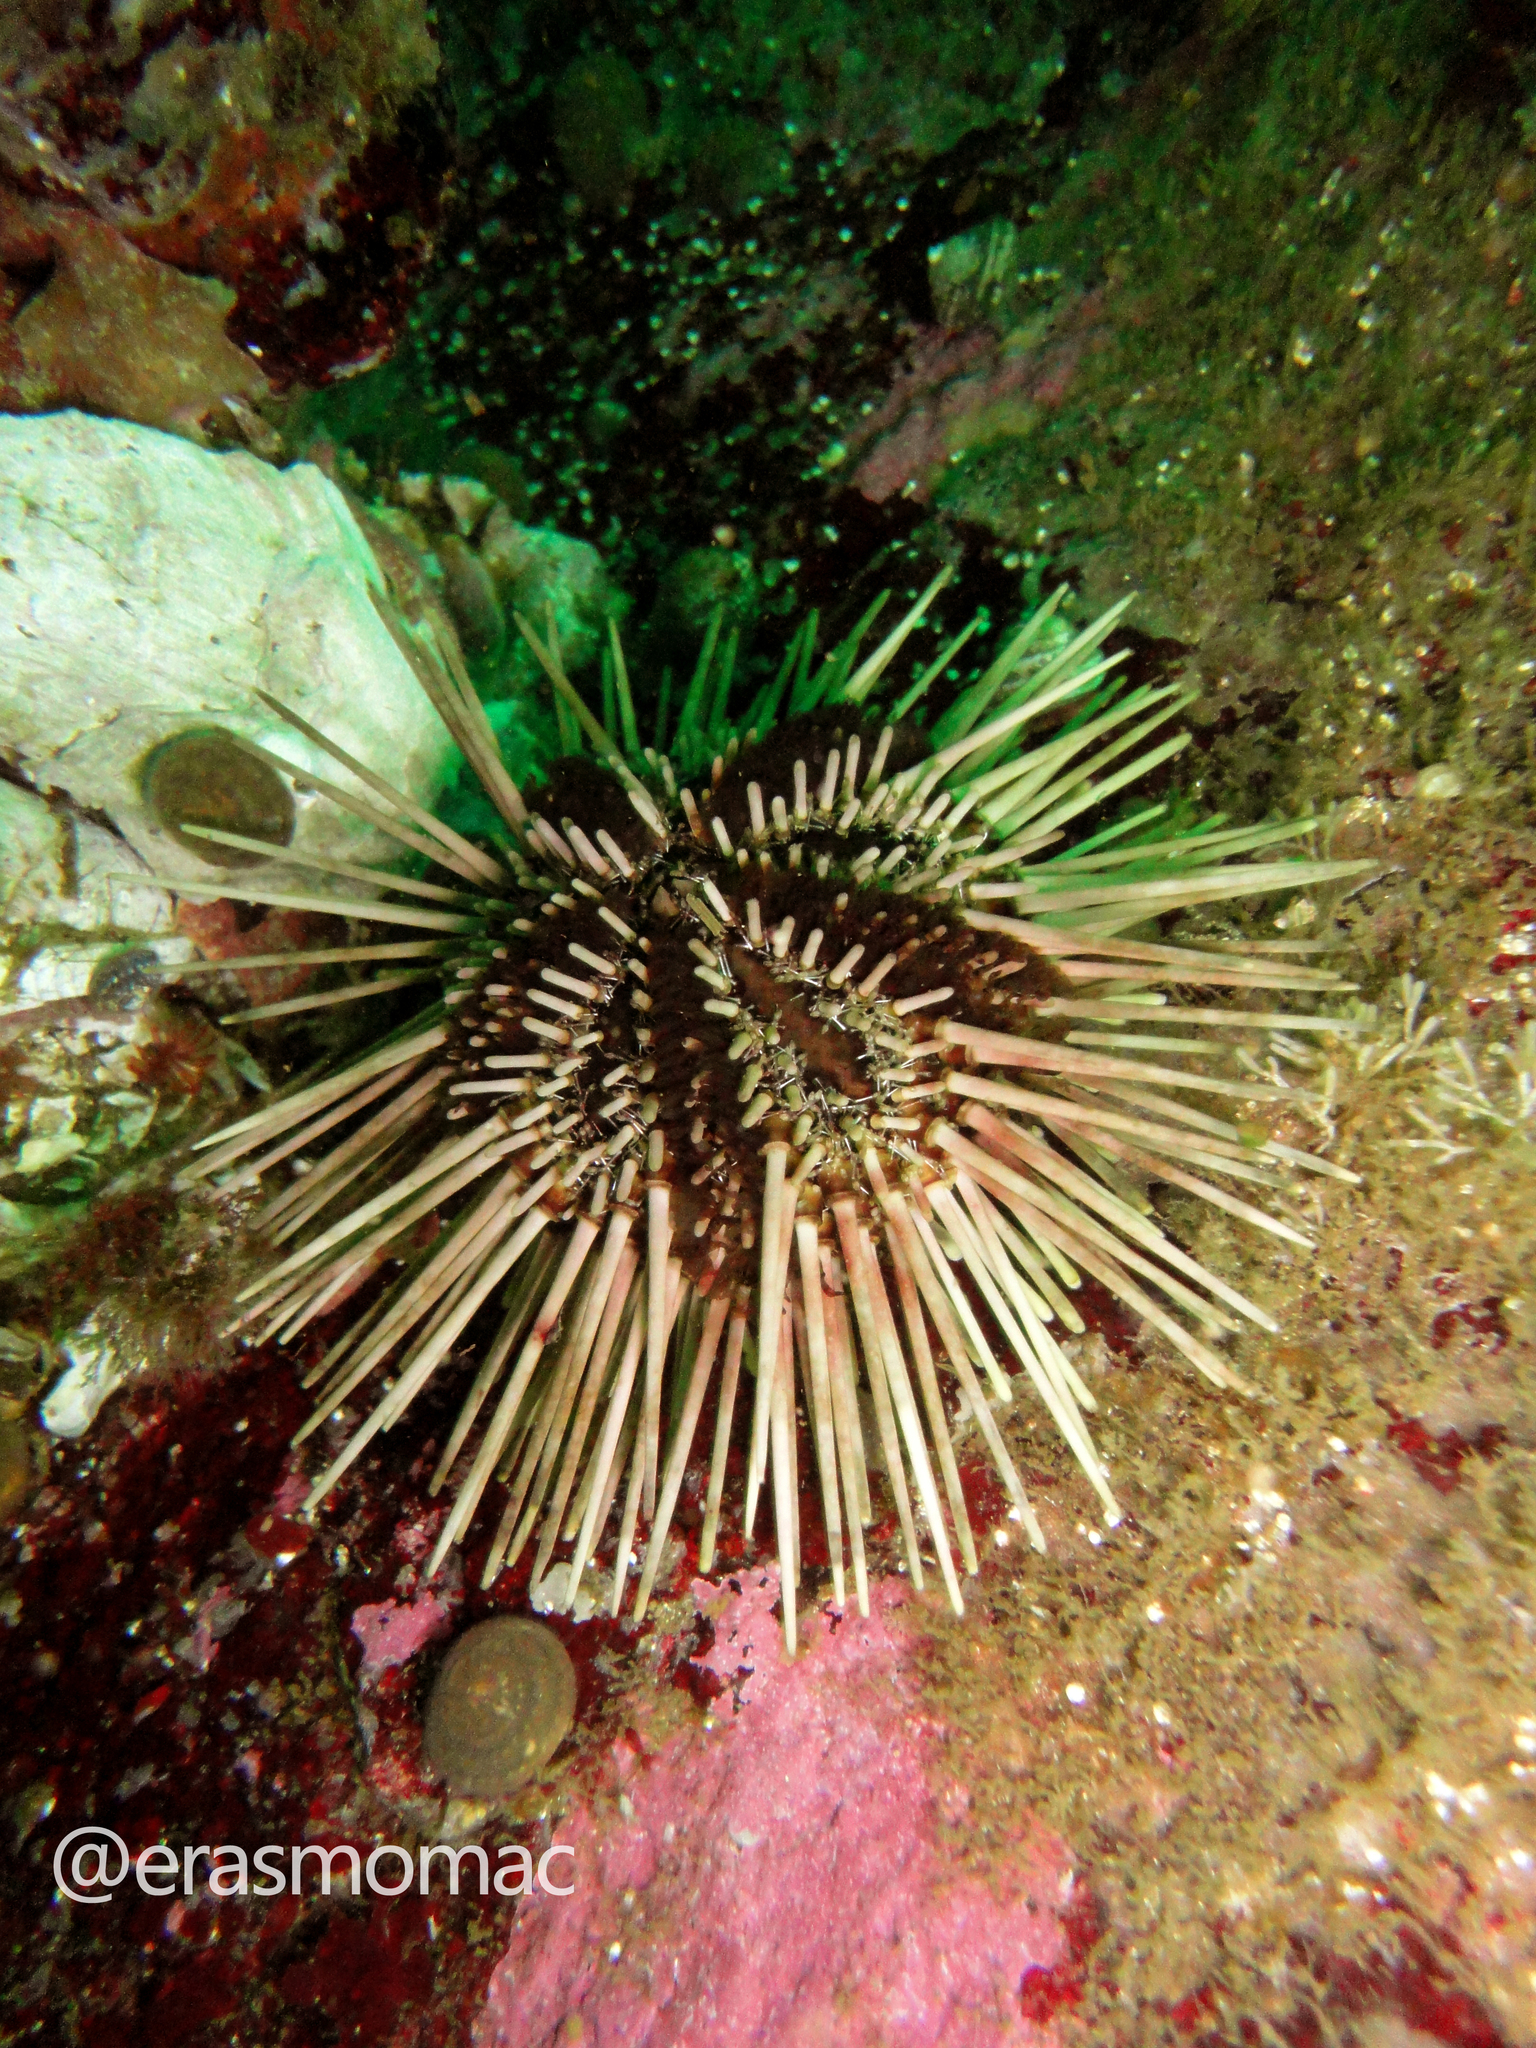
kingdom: Animalia
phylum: Echinodermata
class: Echinoidea
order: Arbacioida
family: Arbaciidae
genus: Arbacia
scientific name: Arbacia spatuligera
